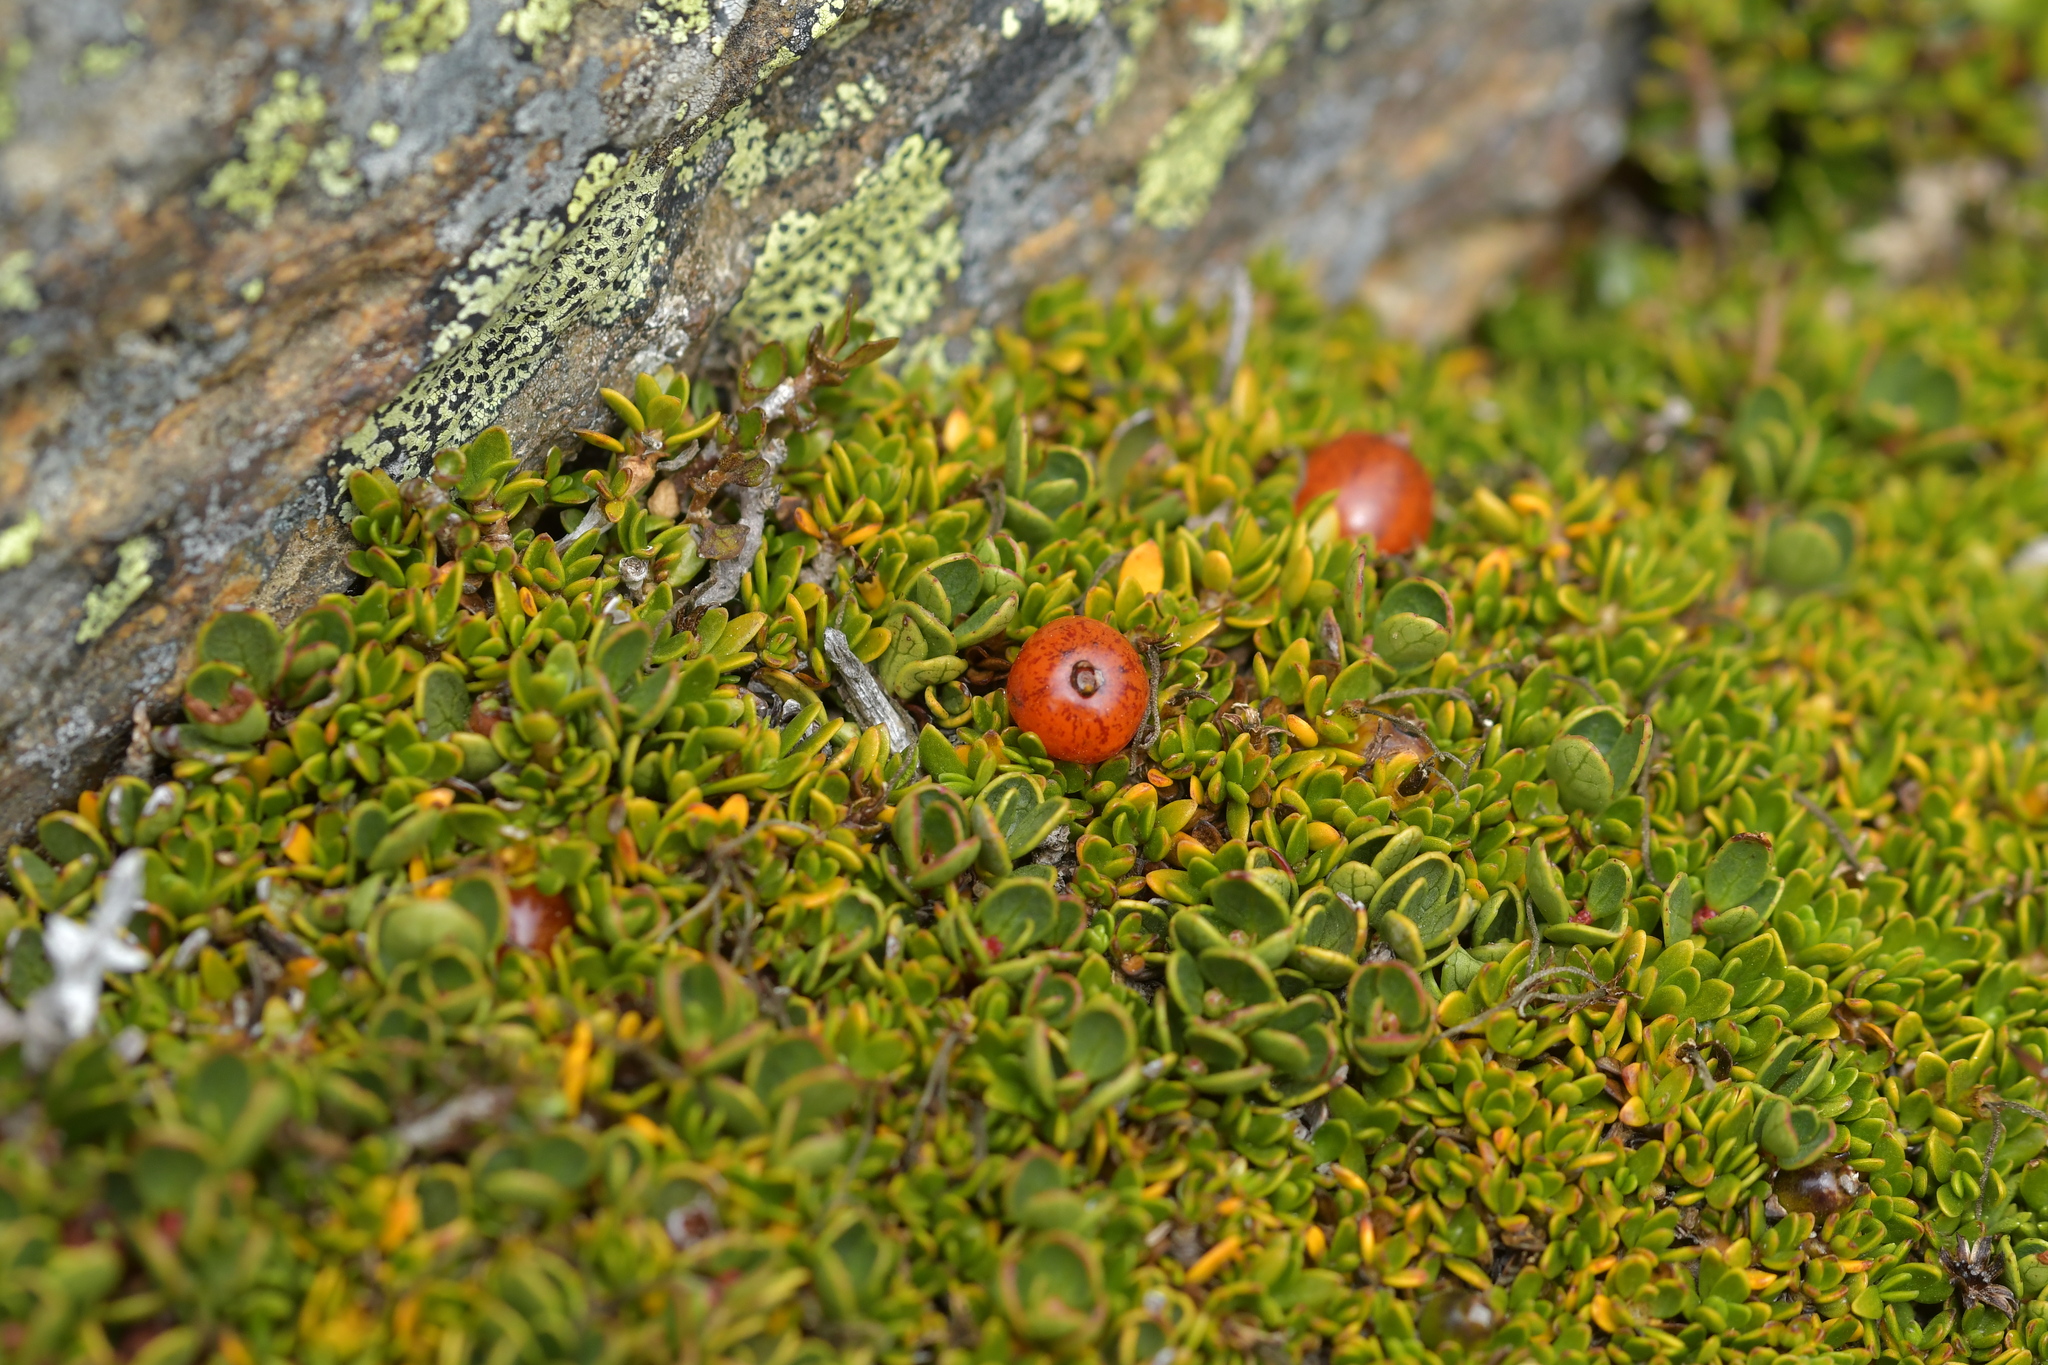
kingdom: Plantae
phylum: Tracheophyta
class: Magnoliopsida
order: Gentianales
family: Rubiaceae
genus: Coprosma
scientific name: Coprosma niphophila
